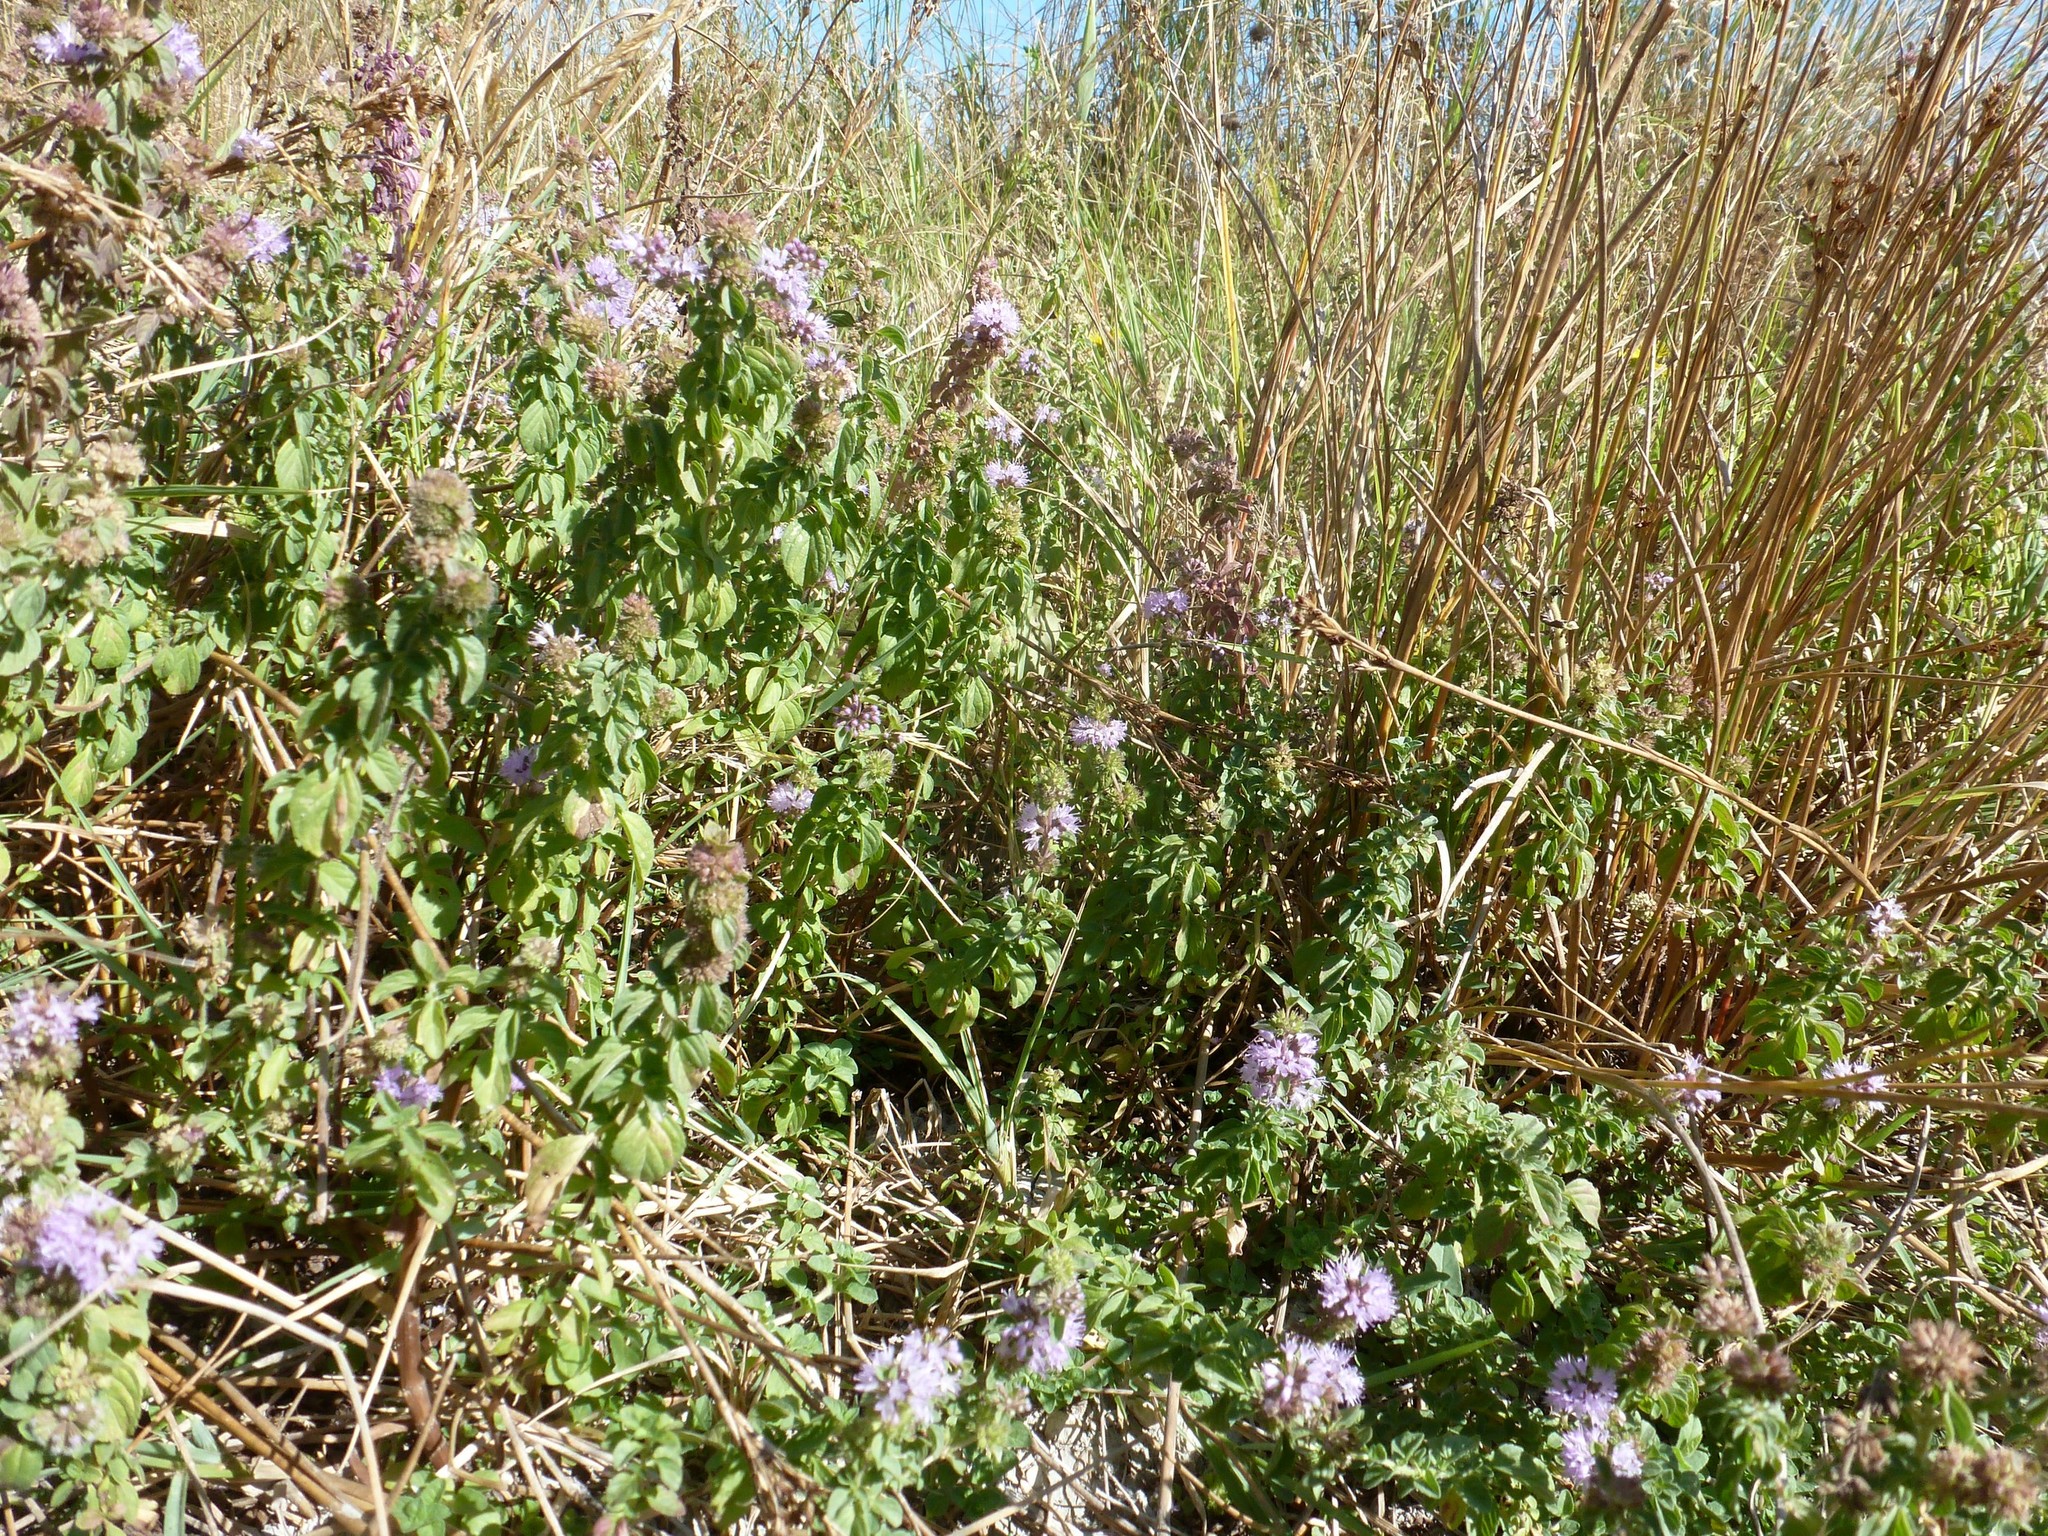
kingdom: Plantae
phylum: Tracheophyta
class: Magnoliopsida
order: Lamiales
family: Lamiaceae
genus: Mentha
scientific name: Mentha pulegium
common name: Pennyroyal
